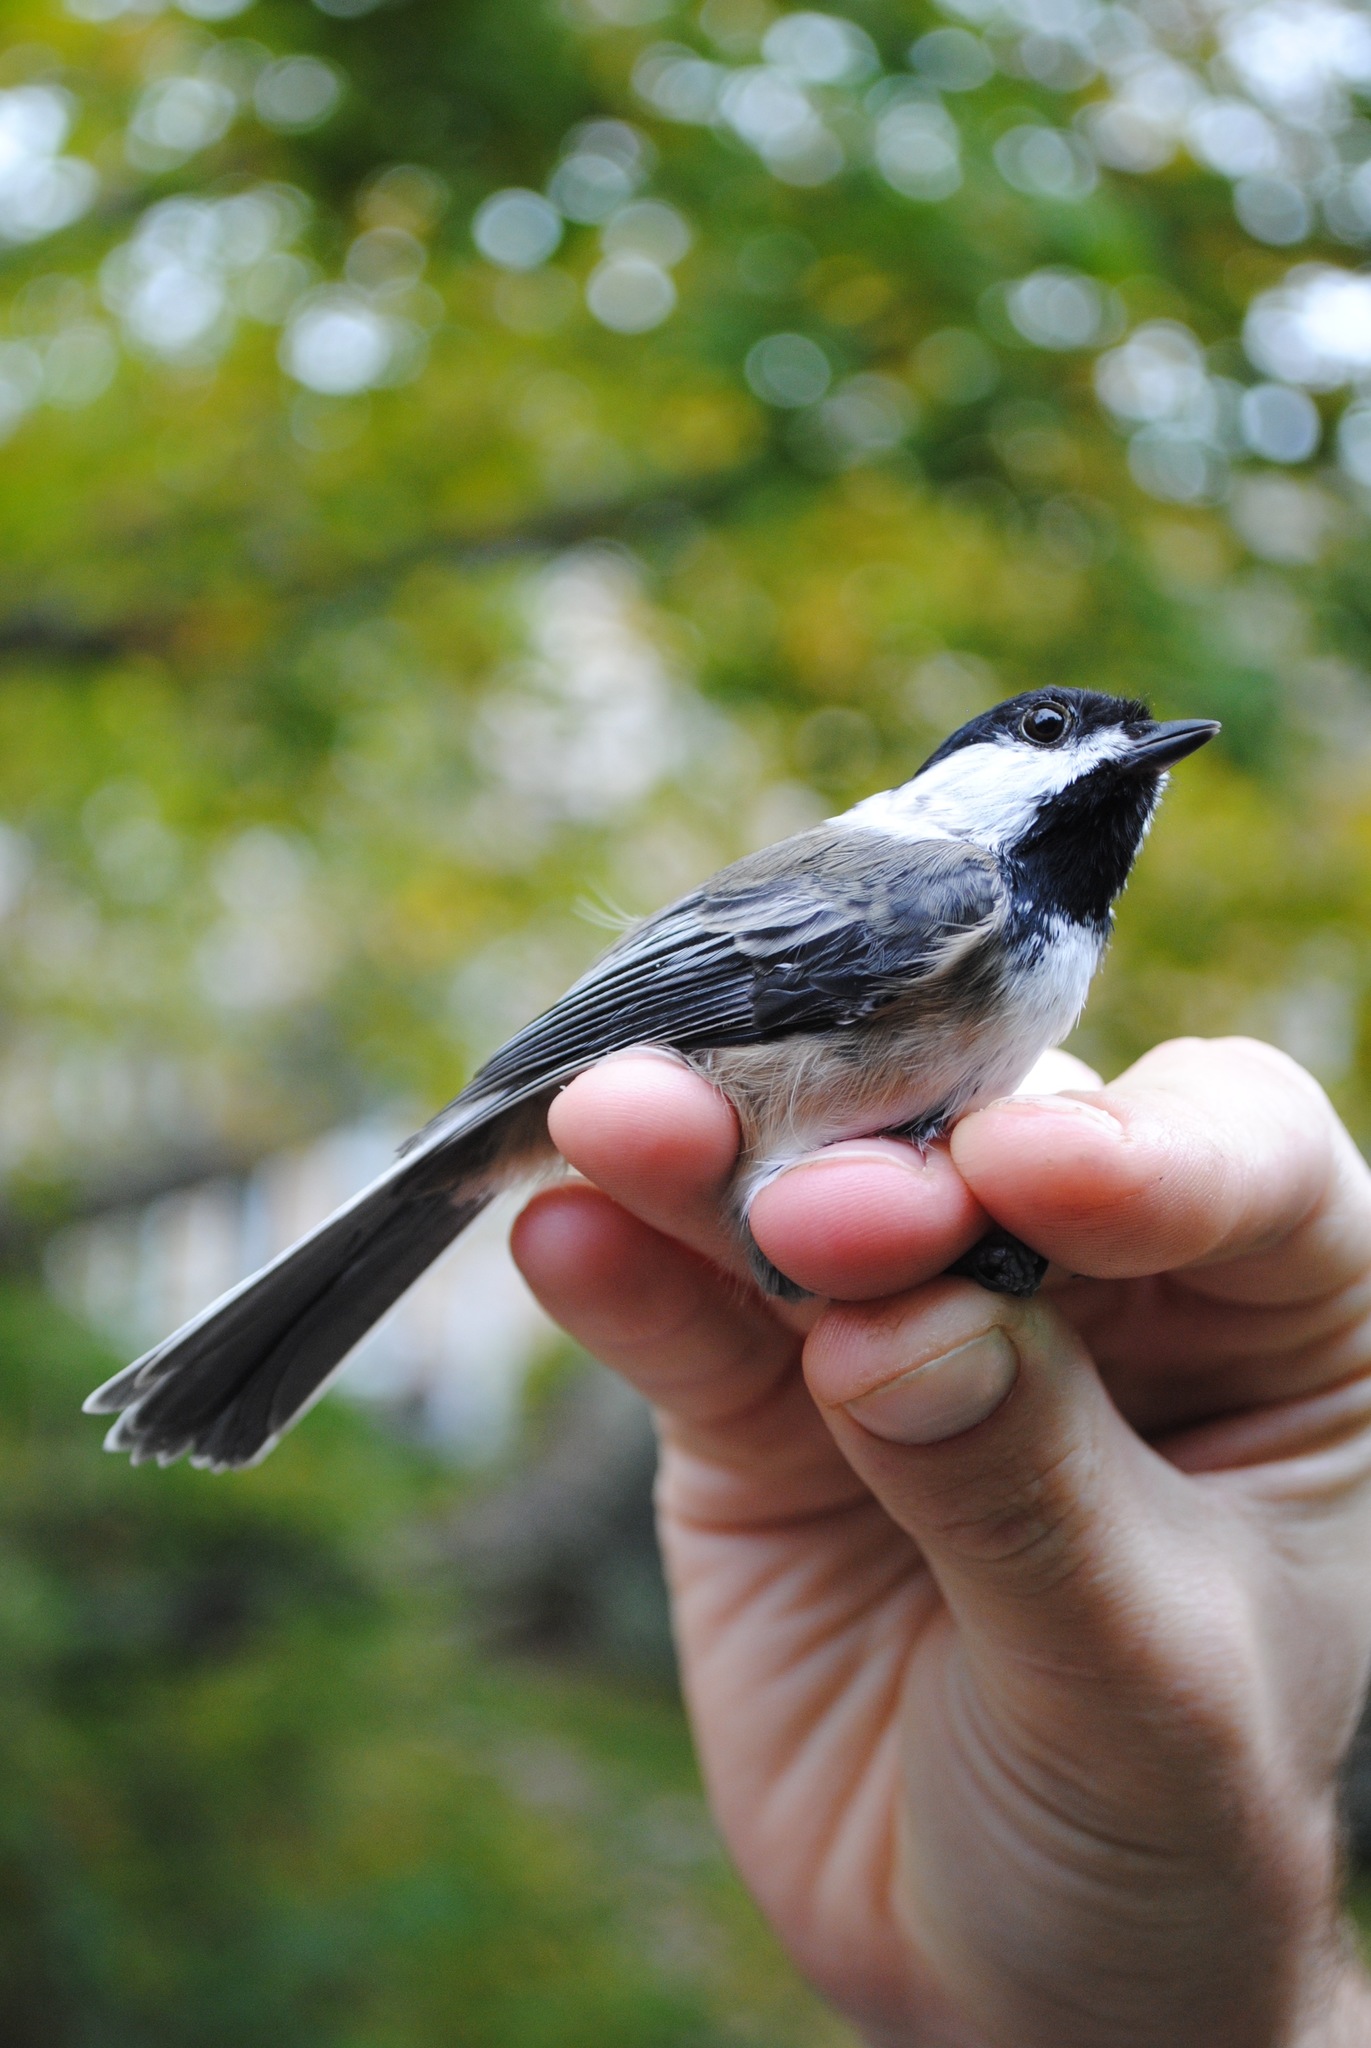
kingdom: Animalia
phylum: Chordata
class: Aves
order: Passeriformes
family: Paridae
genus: Poecile
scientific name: Poecile atricapillus
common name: Black-capped chickadee
